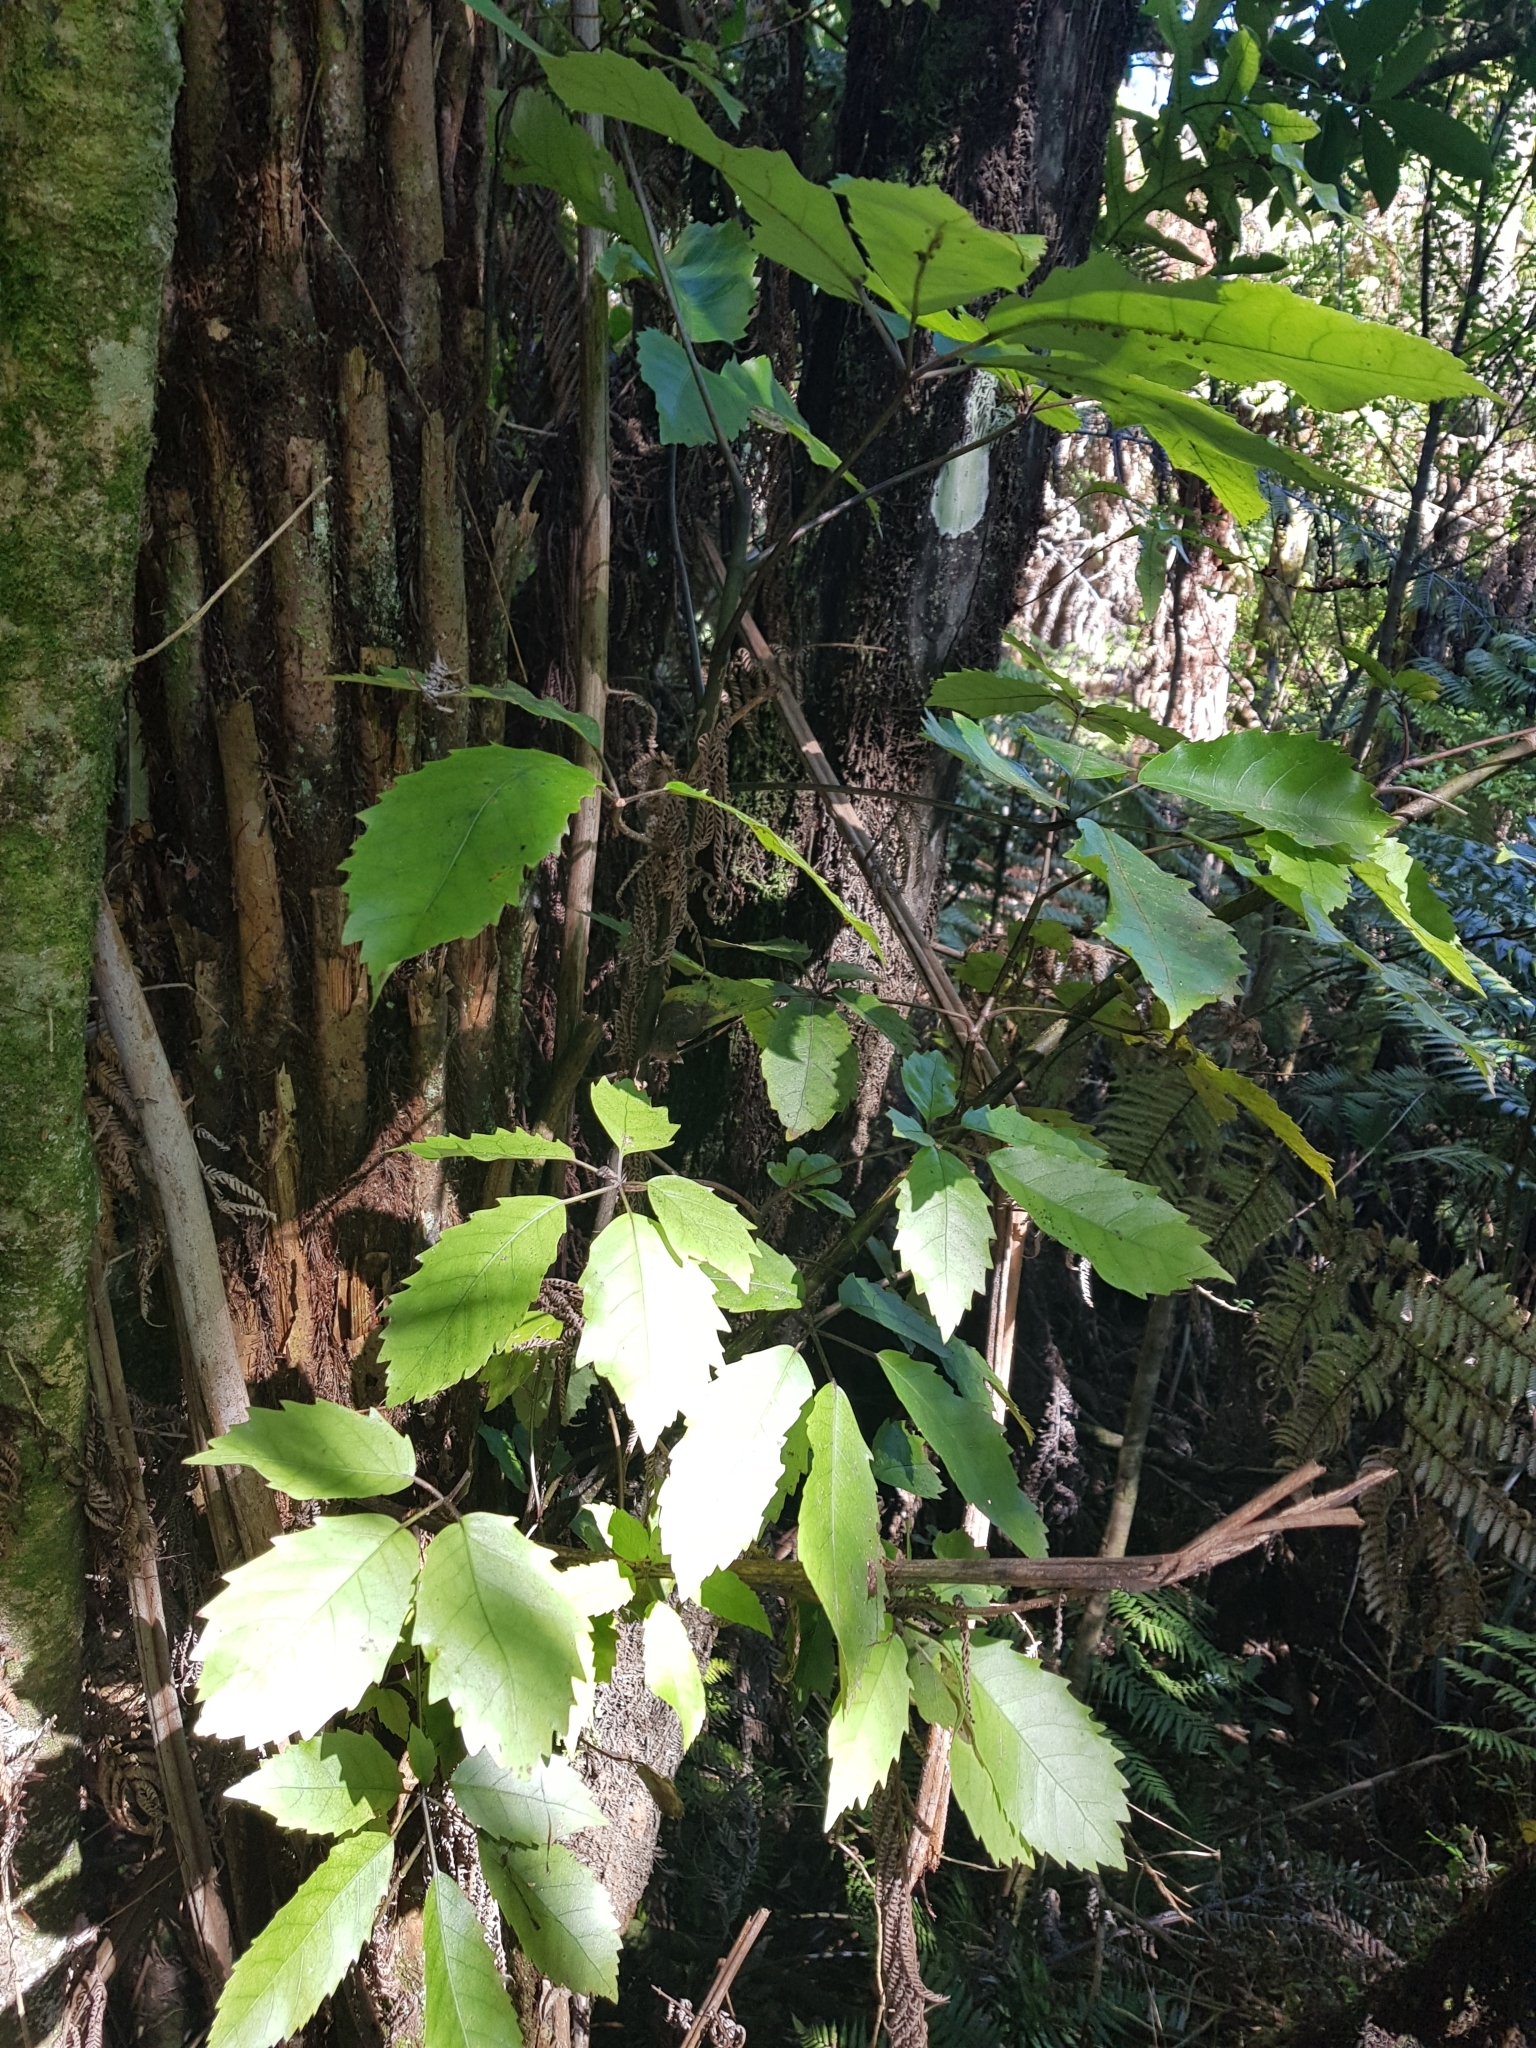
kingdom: Plantae
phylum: Tracheophyta
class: Magnoliopsida
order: Apiales
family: Araliaceae
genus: Neopanax
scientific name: Neopanax arboreus
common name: Five-fingers
